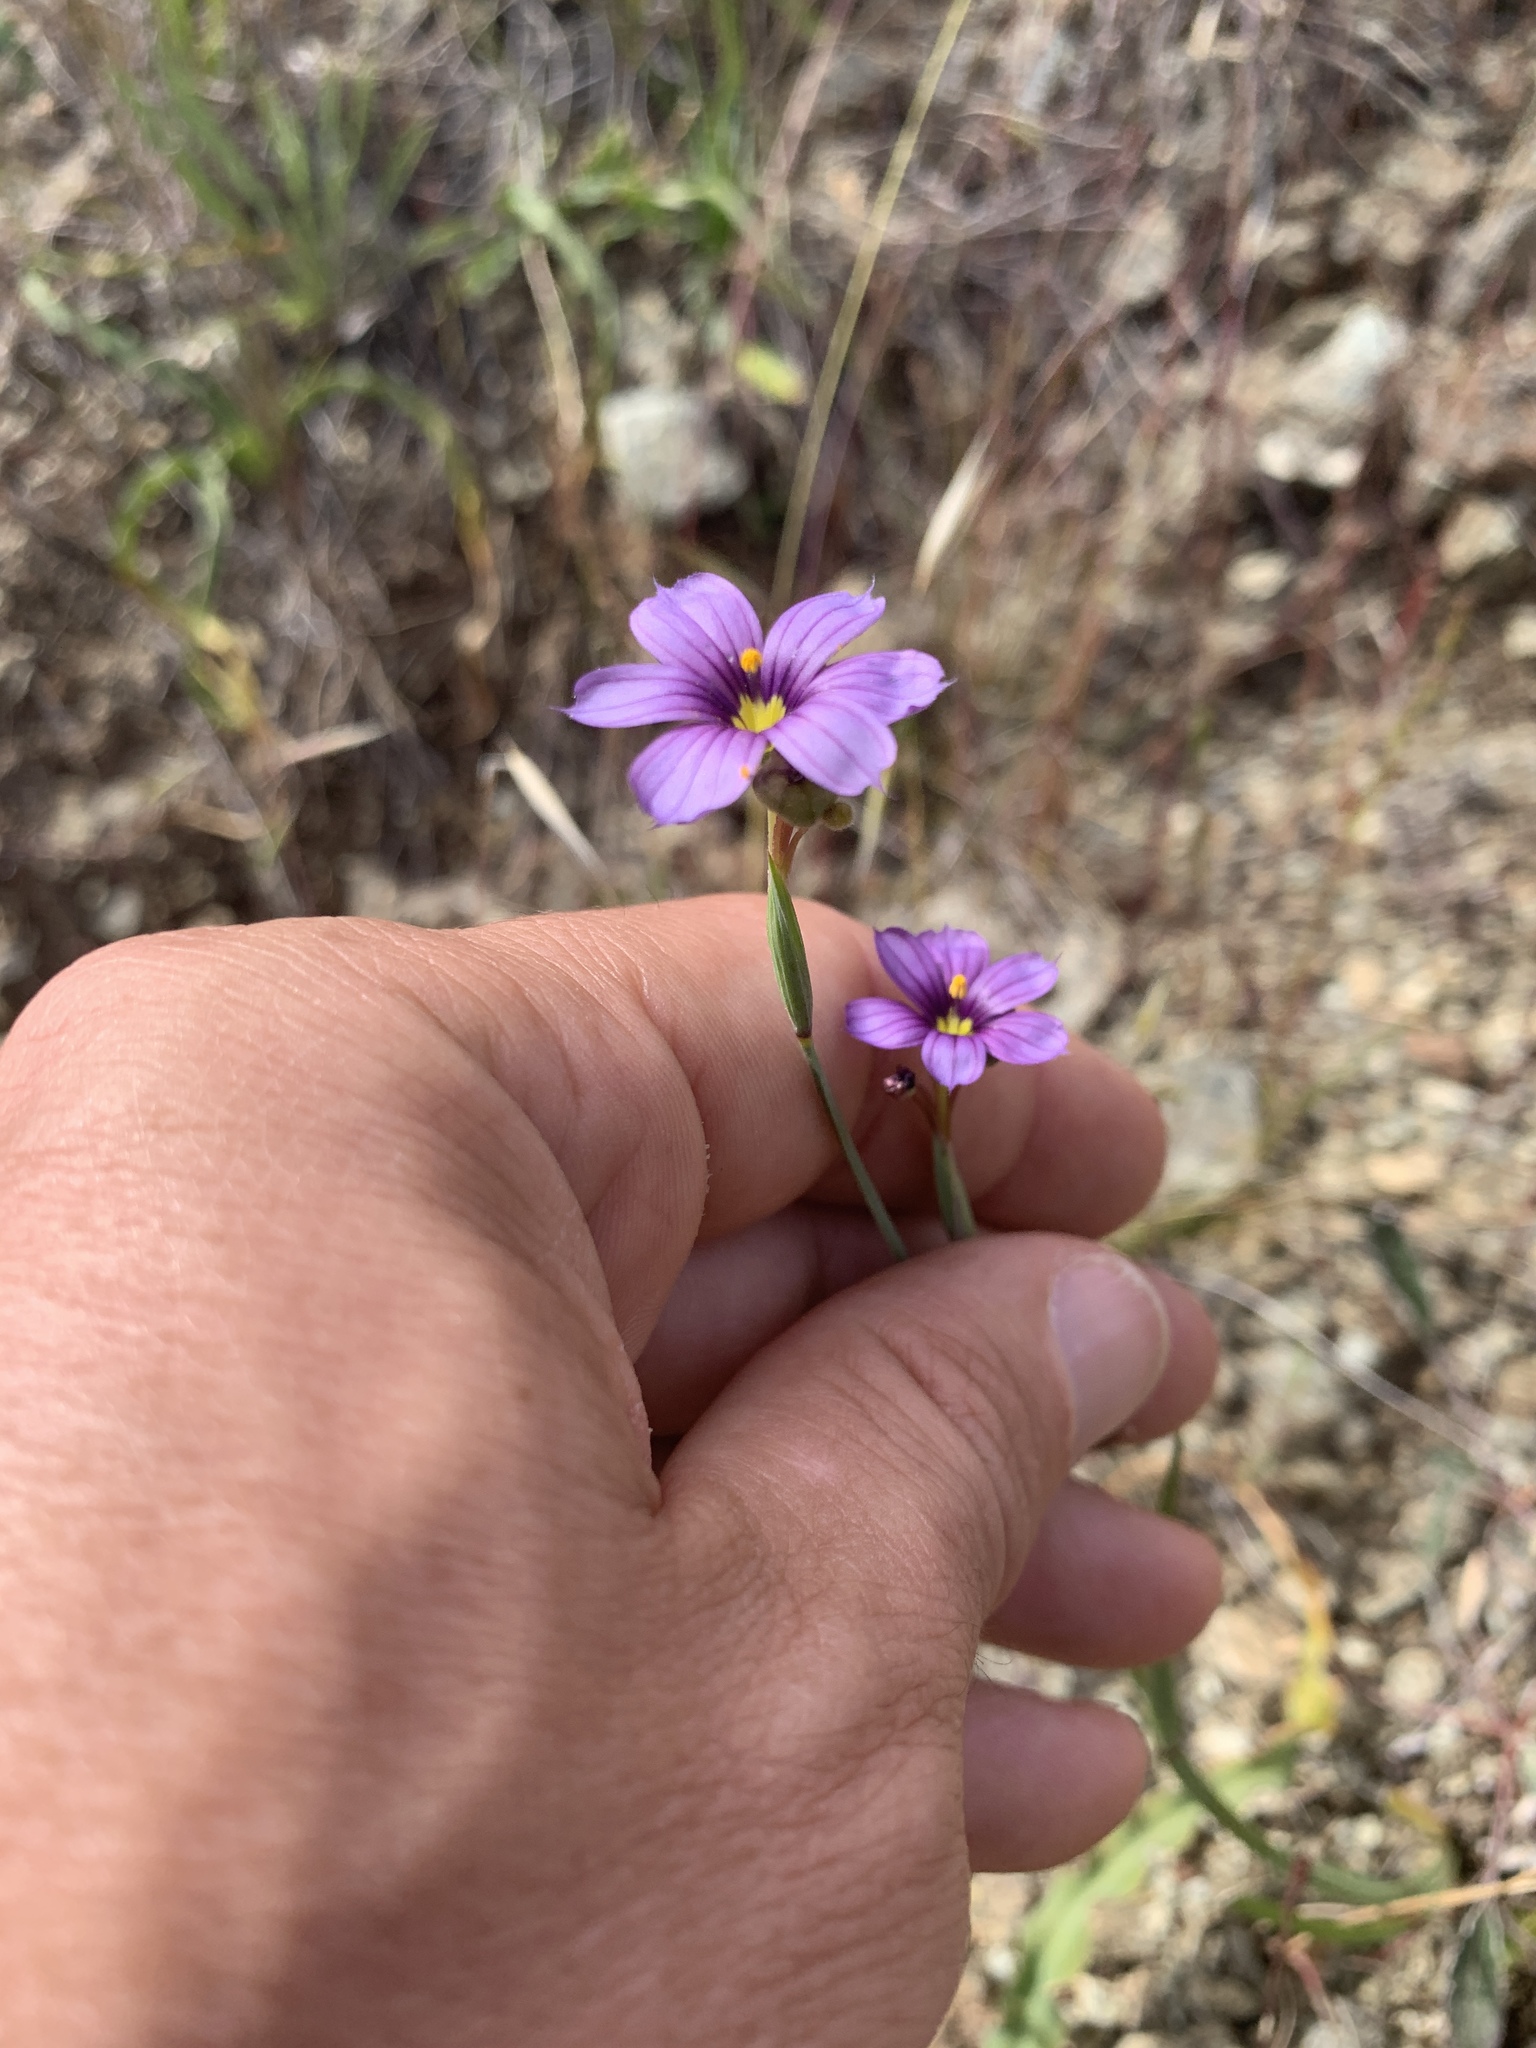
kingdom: Plantae
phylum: Tracheophyta
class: Liliopsida
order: Asparagales
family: Iridaceae
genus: Sisyrinchium
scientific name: Sisyrinchium bellum
